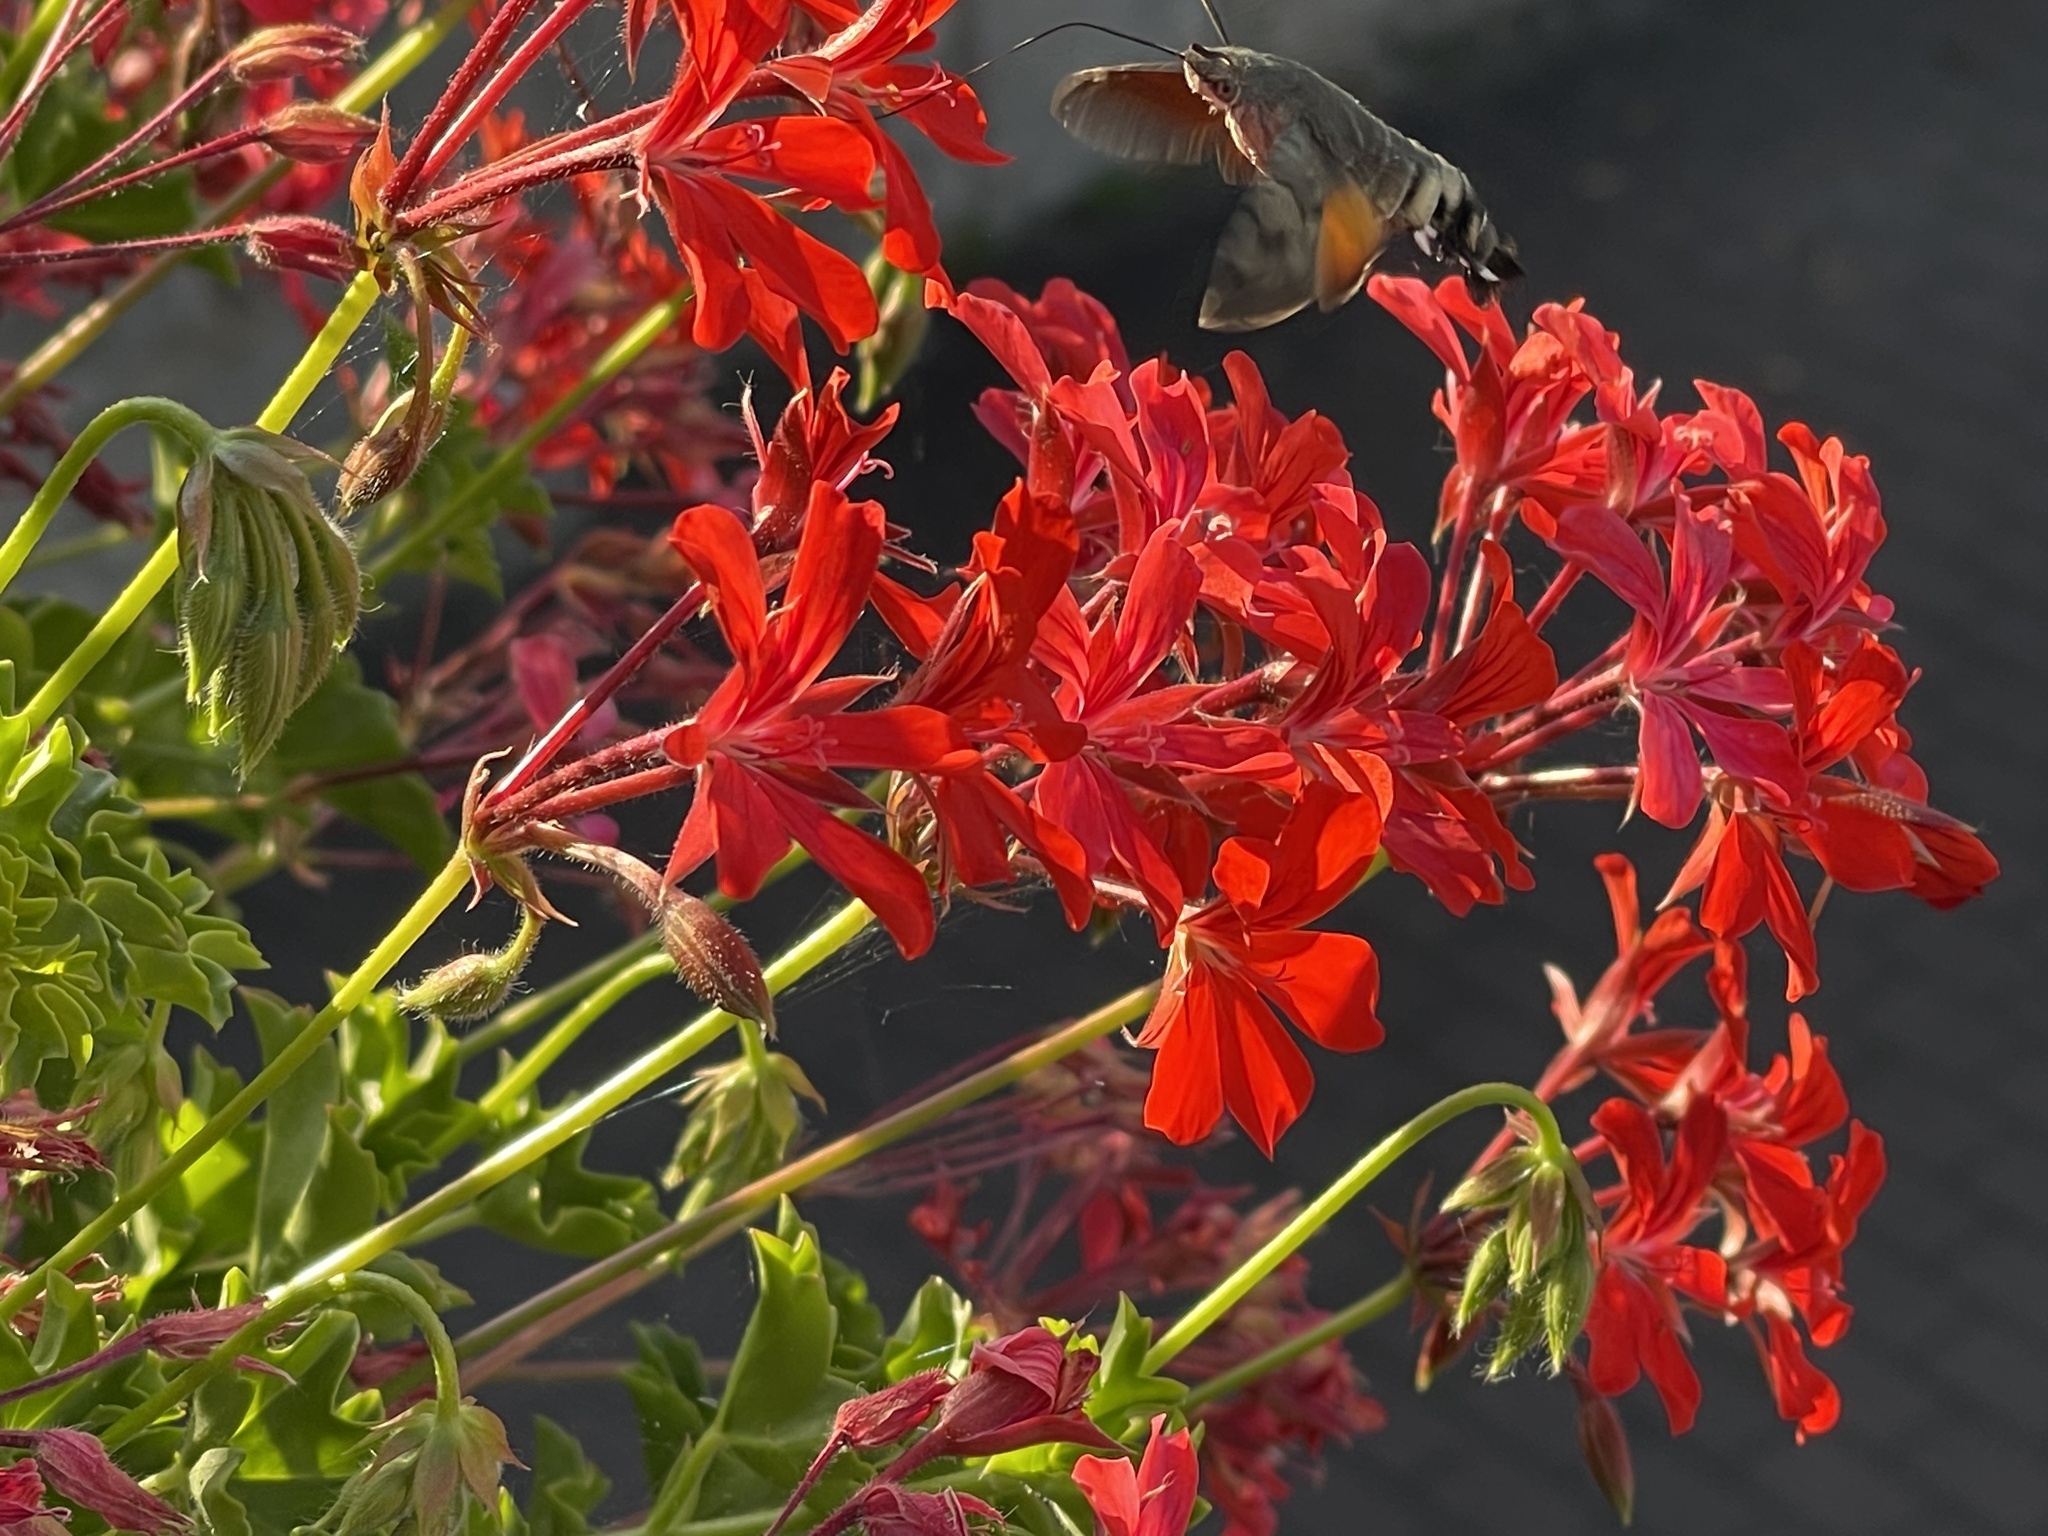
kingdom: Animalia
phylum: Arthropoda
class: Insecta
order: Lepidoptera
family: Sphingidae
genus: Macroglossum
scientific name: Macroglossum stellatarum
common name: Humming-bird hawk-moth
